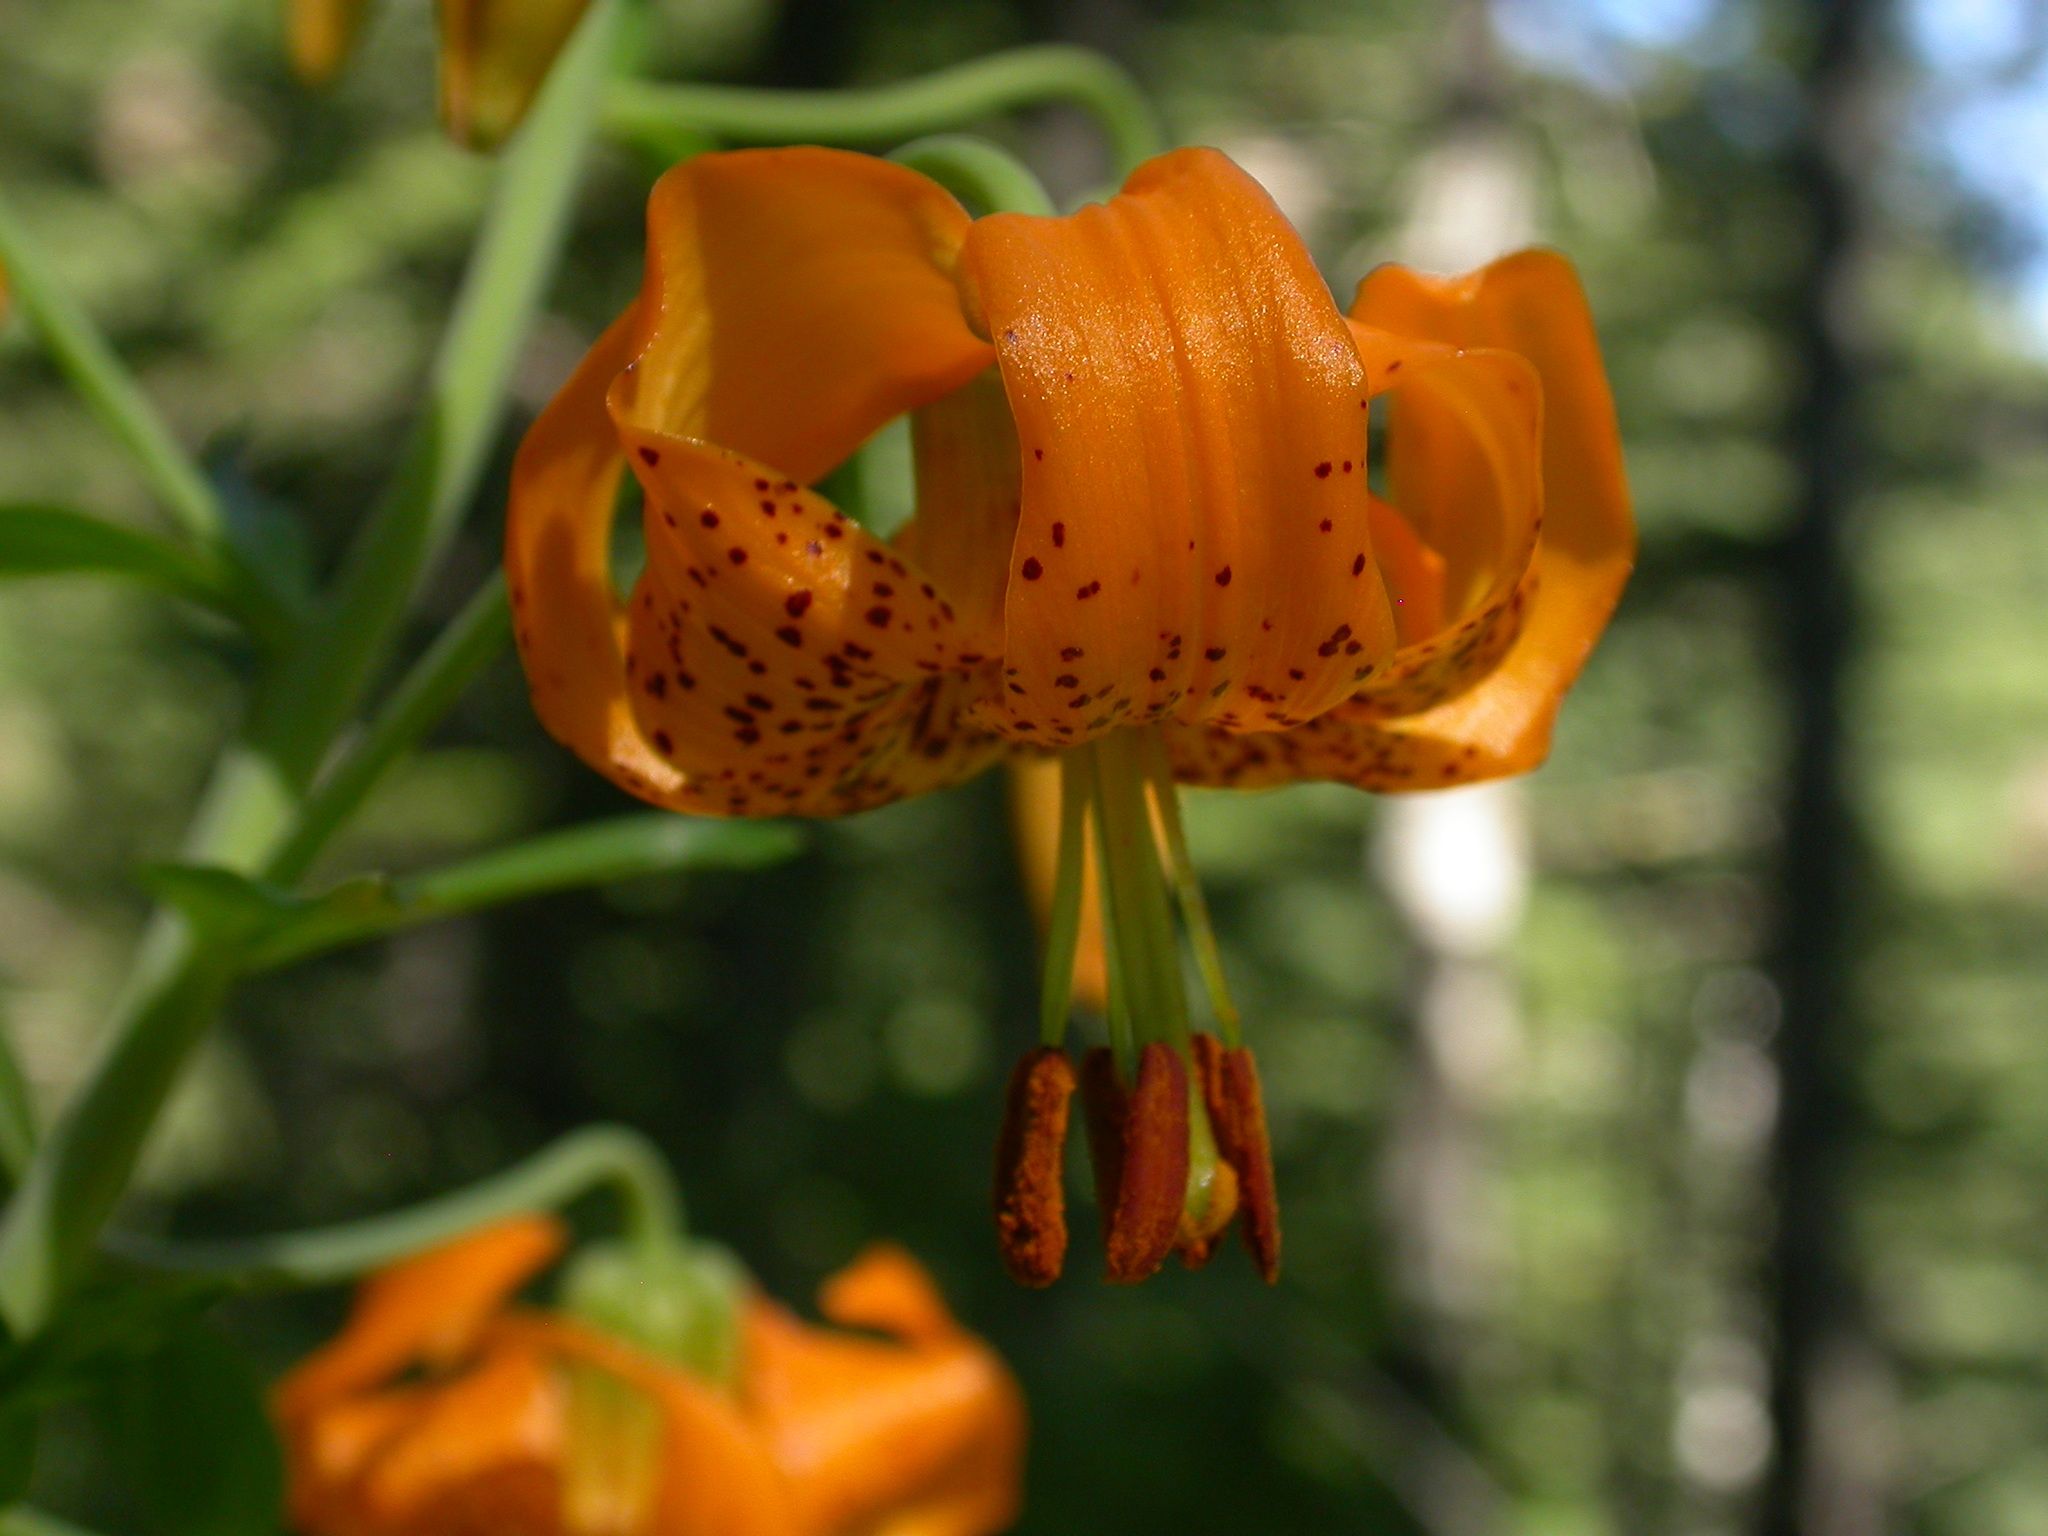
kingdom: Plantae
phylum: Tracheophyta
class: Liliopsida
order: Liliales
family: Liliaceae
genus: Lilium
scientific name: Lilium columbianum
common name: Columbia lily
